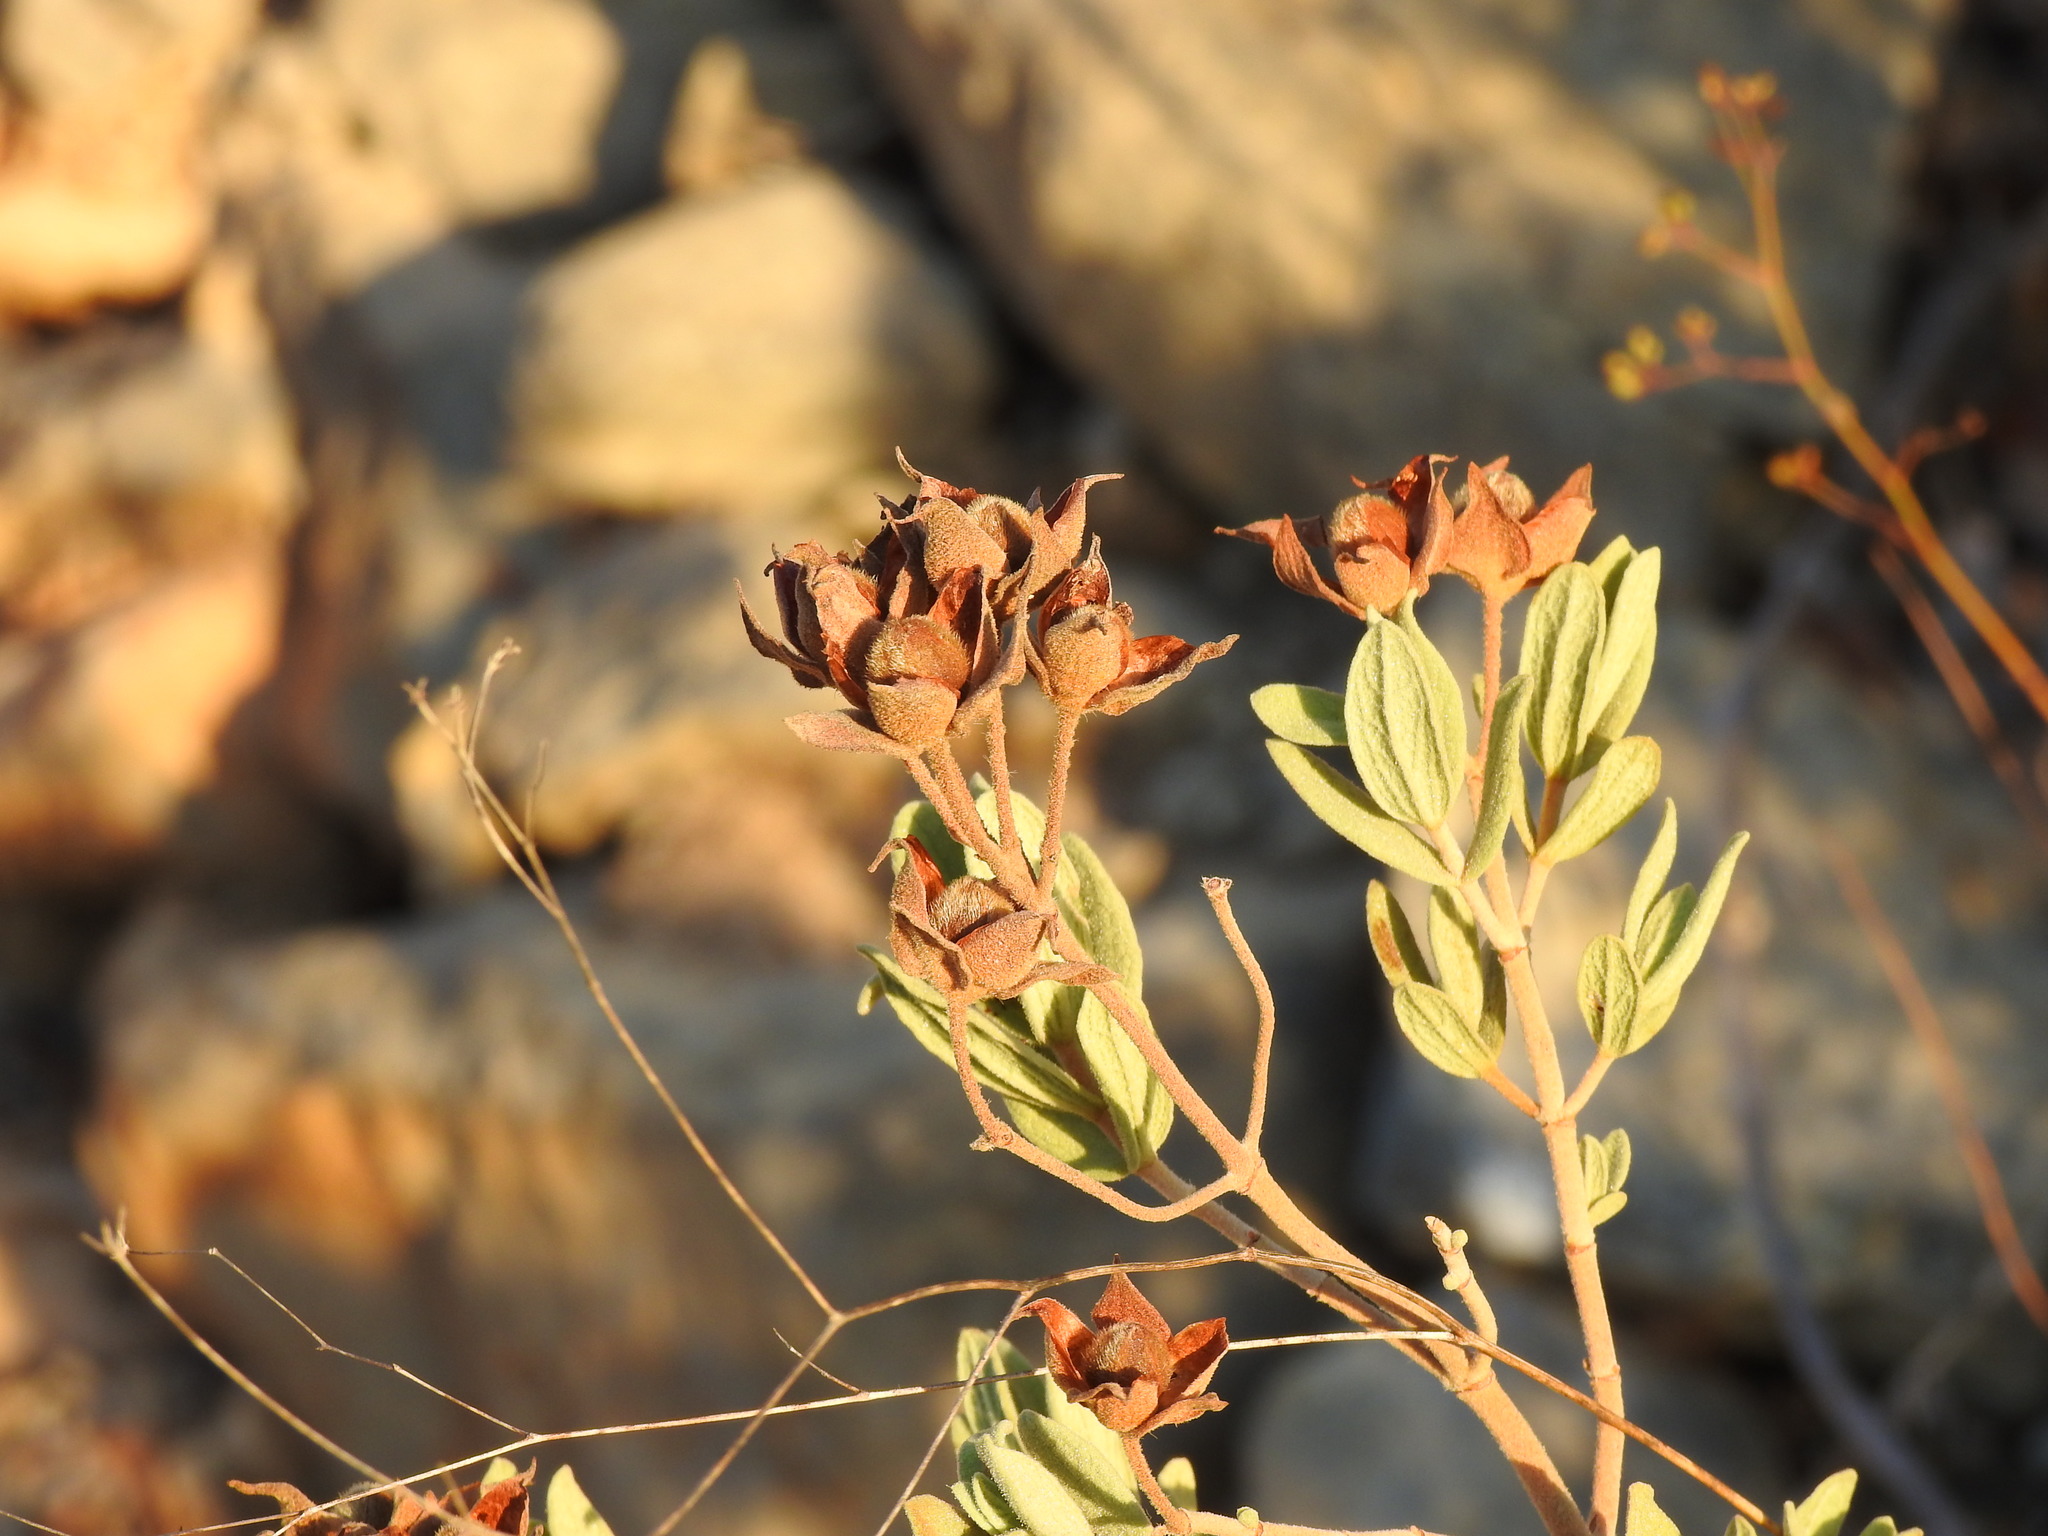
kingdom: Plantae
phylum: Tracheophyta
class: Magnoliopsida
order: Malvales
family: Cistaceae
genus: Cistus
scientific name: Cistus albidus
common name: White-leaf rock-rose
